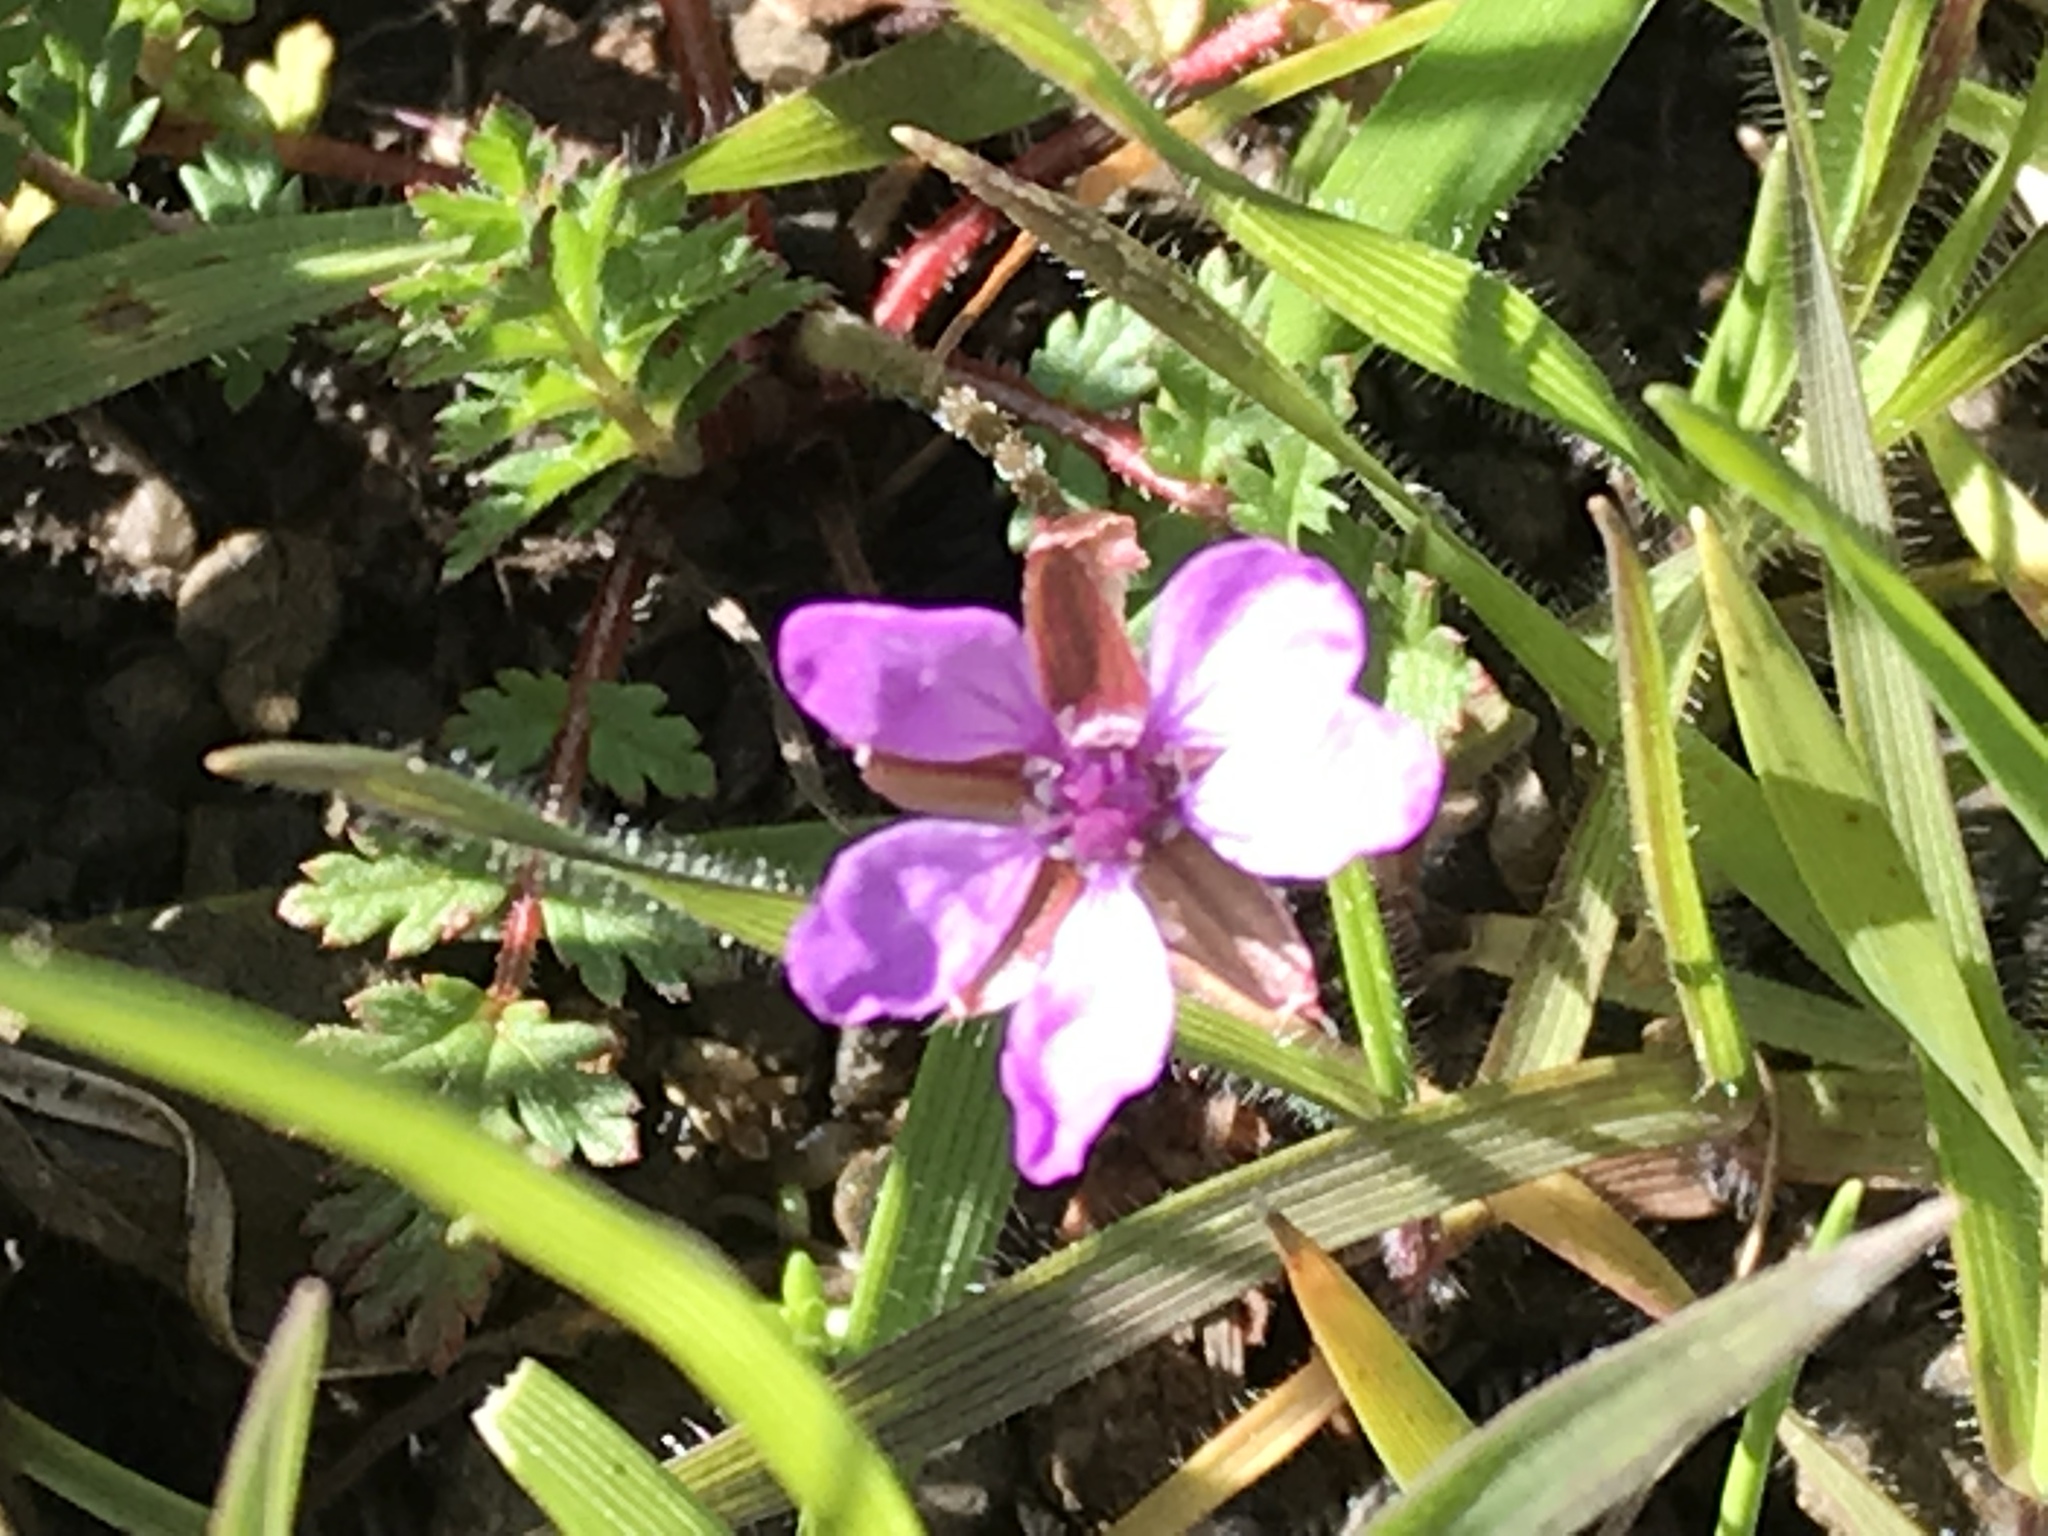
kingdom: Plantae
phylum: Tracheophyta
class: Magnoliopsida
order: Geraniales
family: Geraniaceae
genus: Erodium
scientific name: Erodium cicutarium
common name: Common stork's-bill
